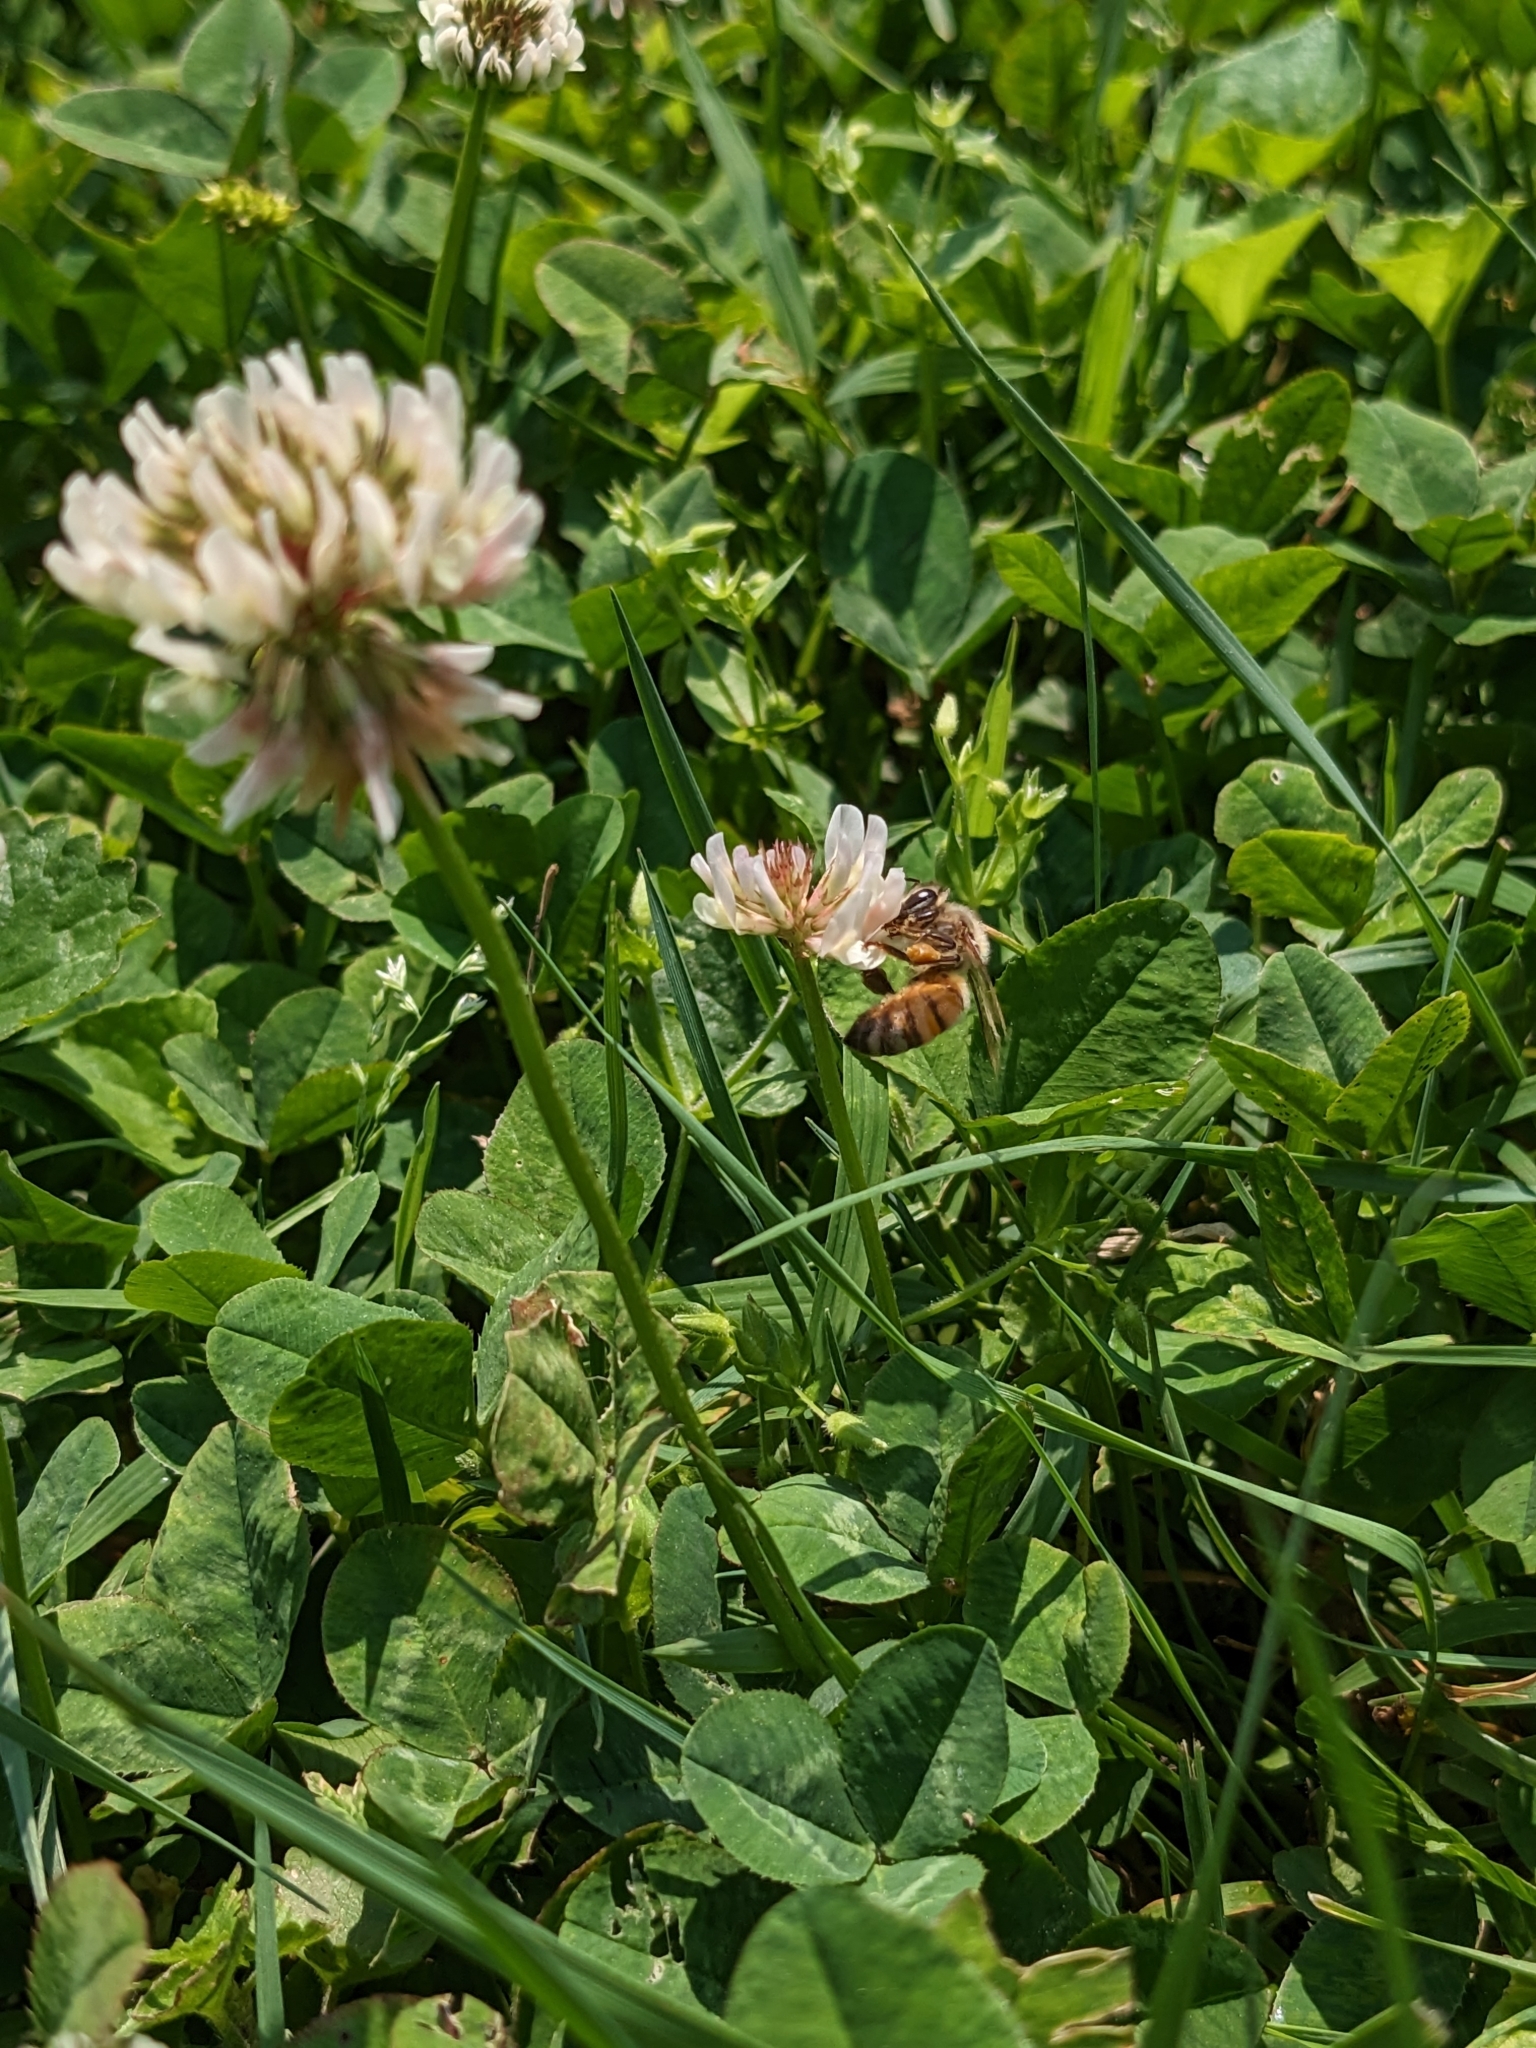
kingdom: Animalia
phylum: Arthropoda
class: Insecta
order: Hymenoptera
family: Apidae
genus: Apis
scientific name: Apis mellifera
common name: Honey bee
